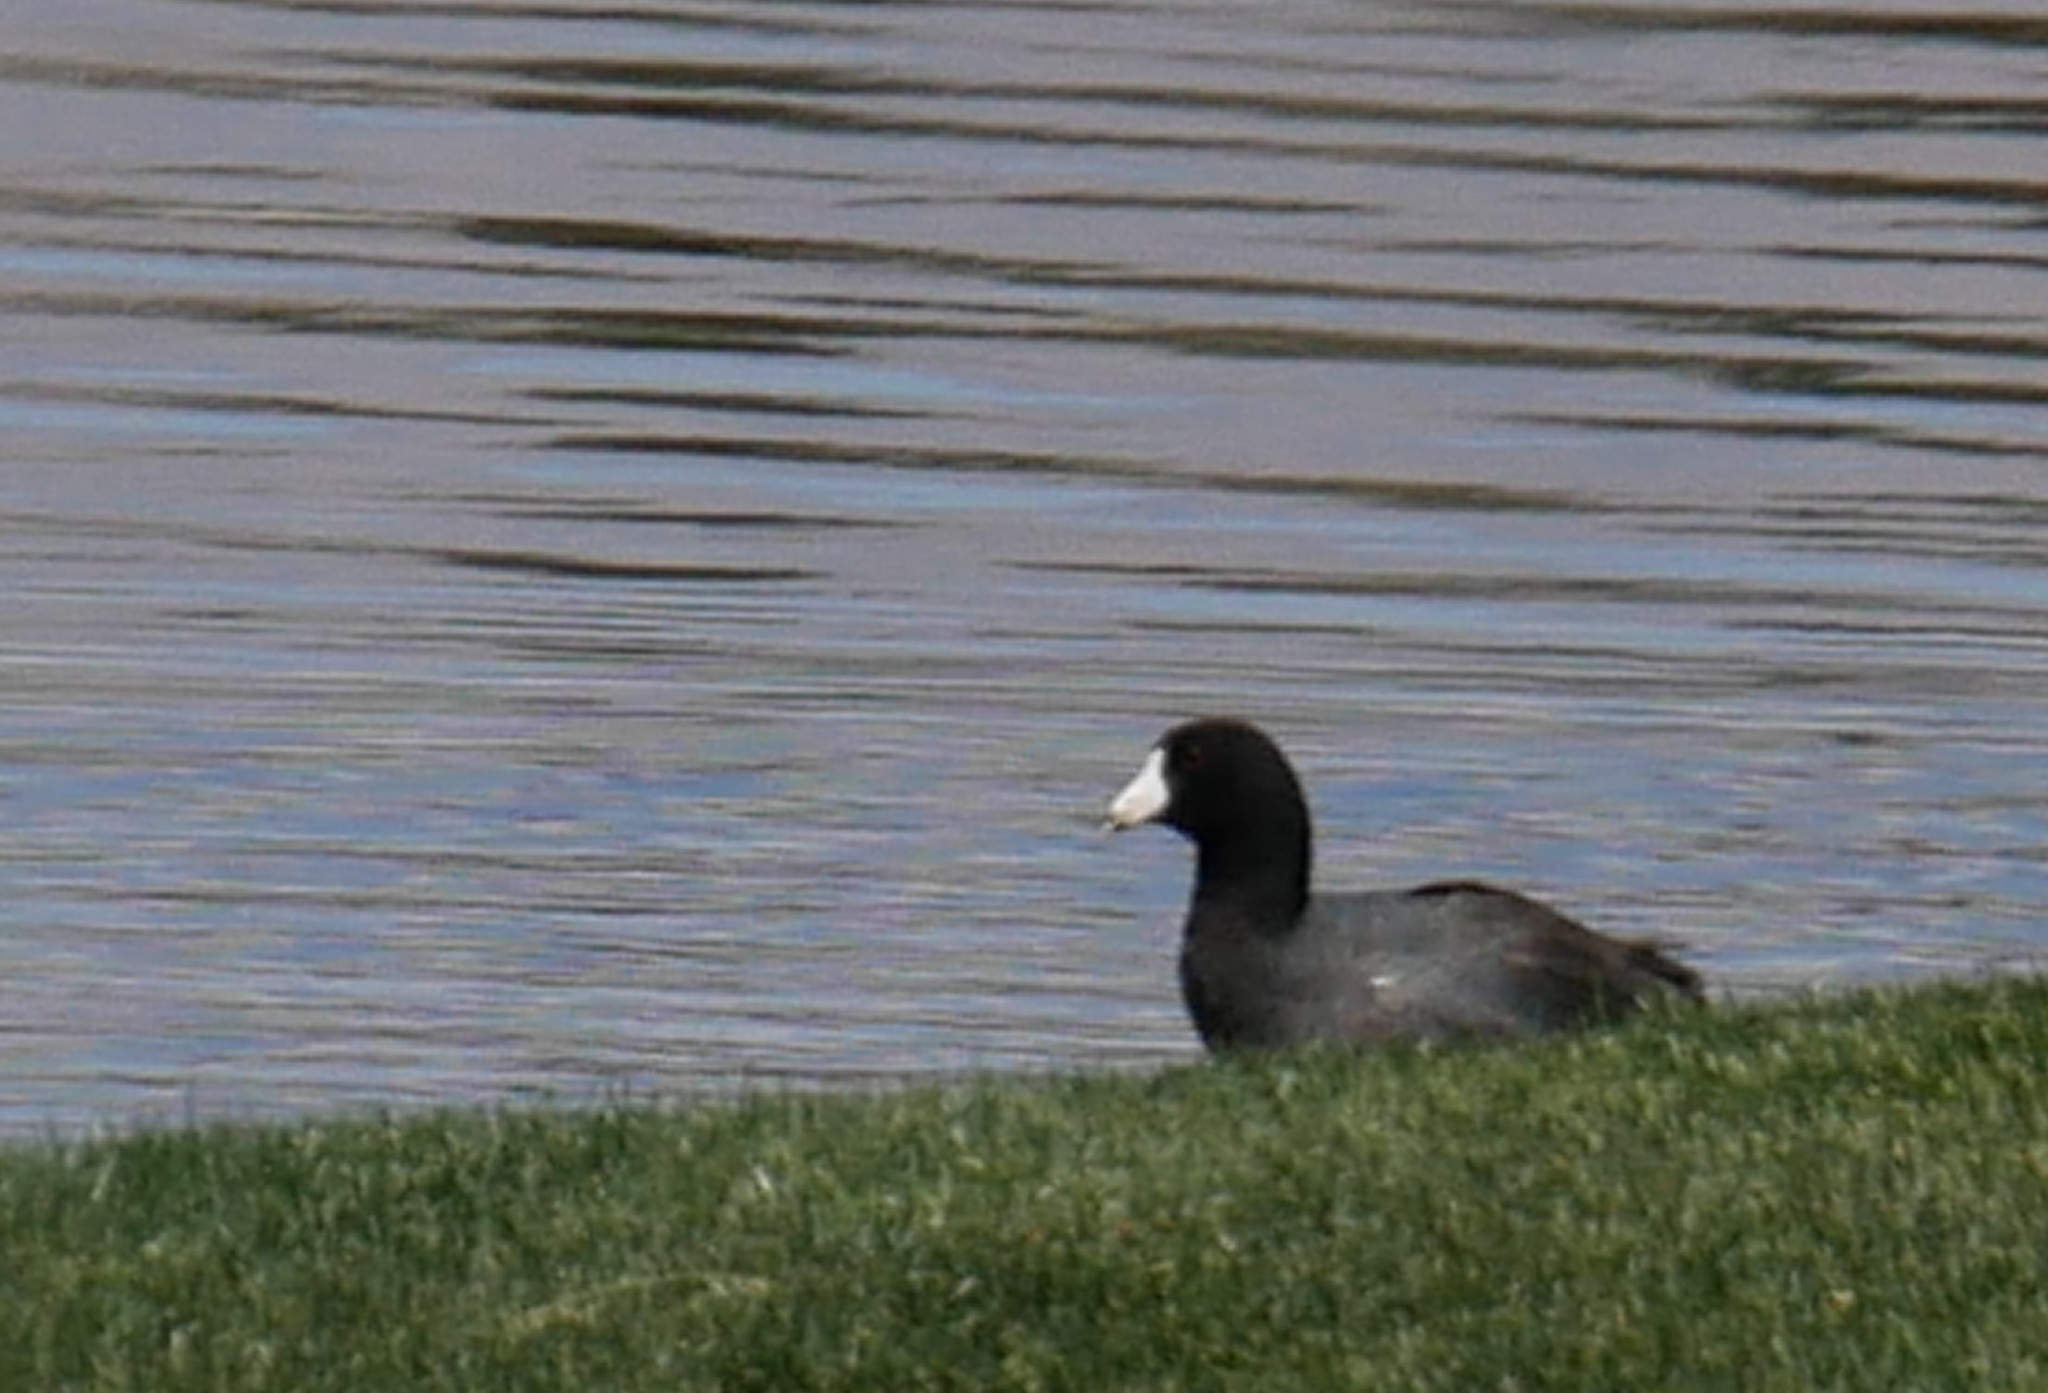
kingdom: Animalia
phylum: Chordata
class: Aves
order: Gruiformes
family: Rallidae
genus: Fulica
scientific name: Fulica americana
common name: American coot
